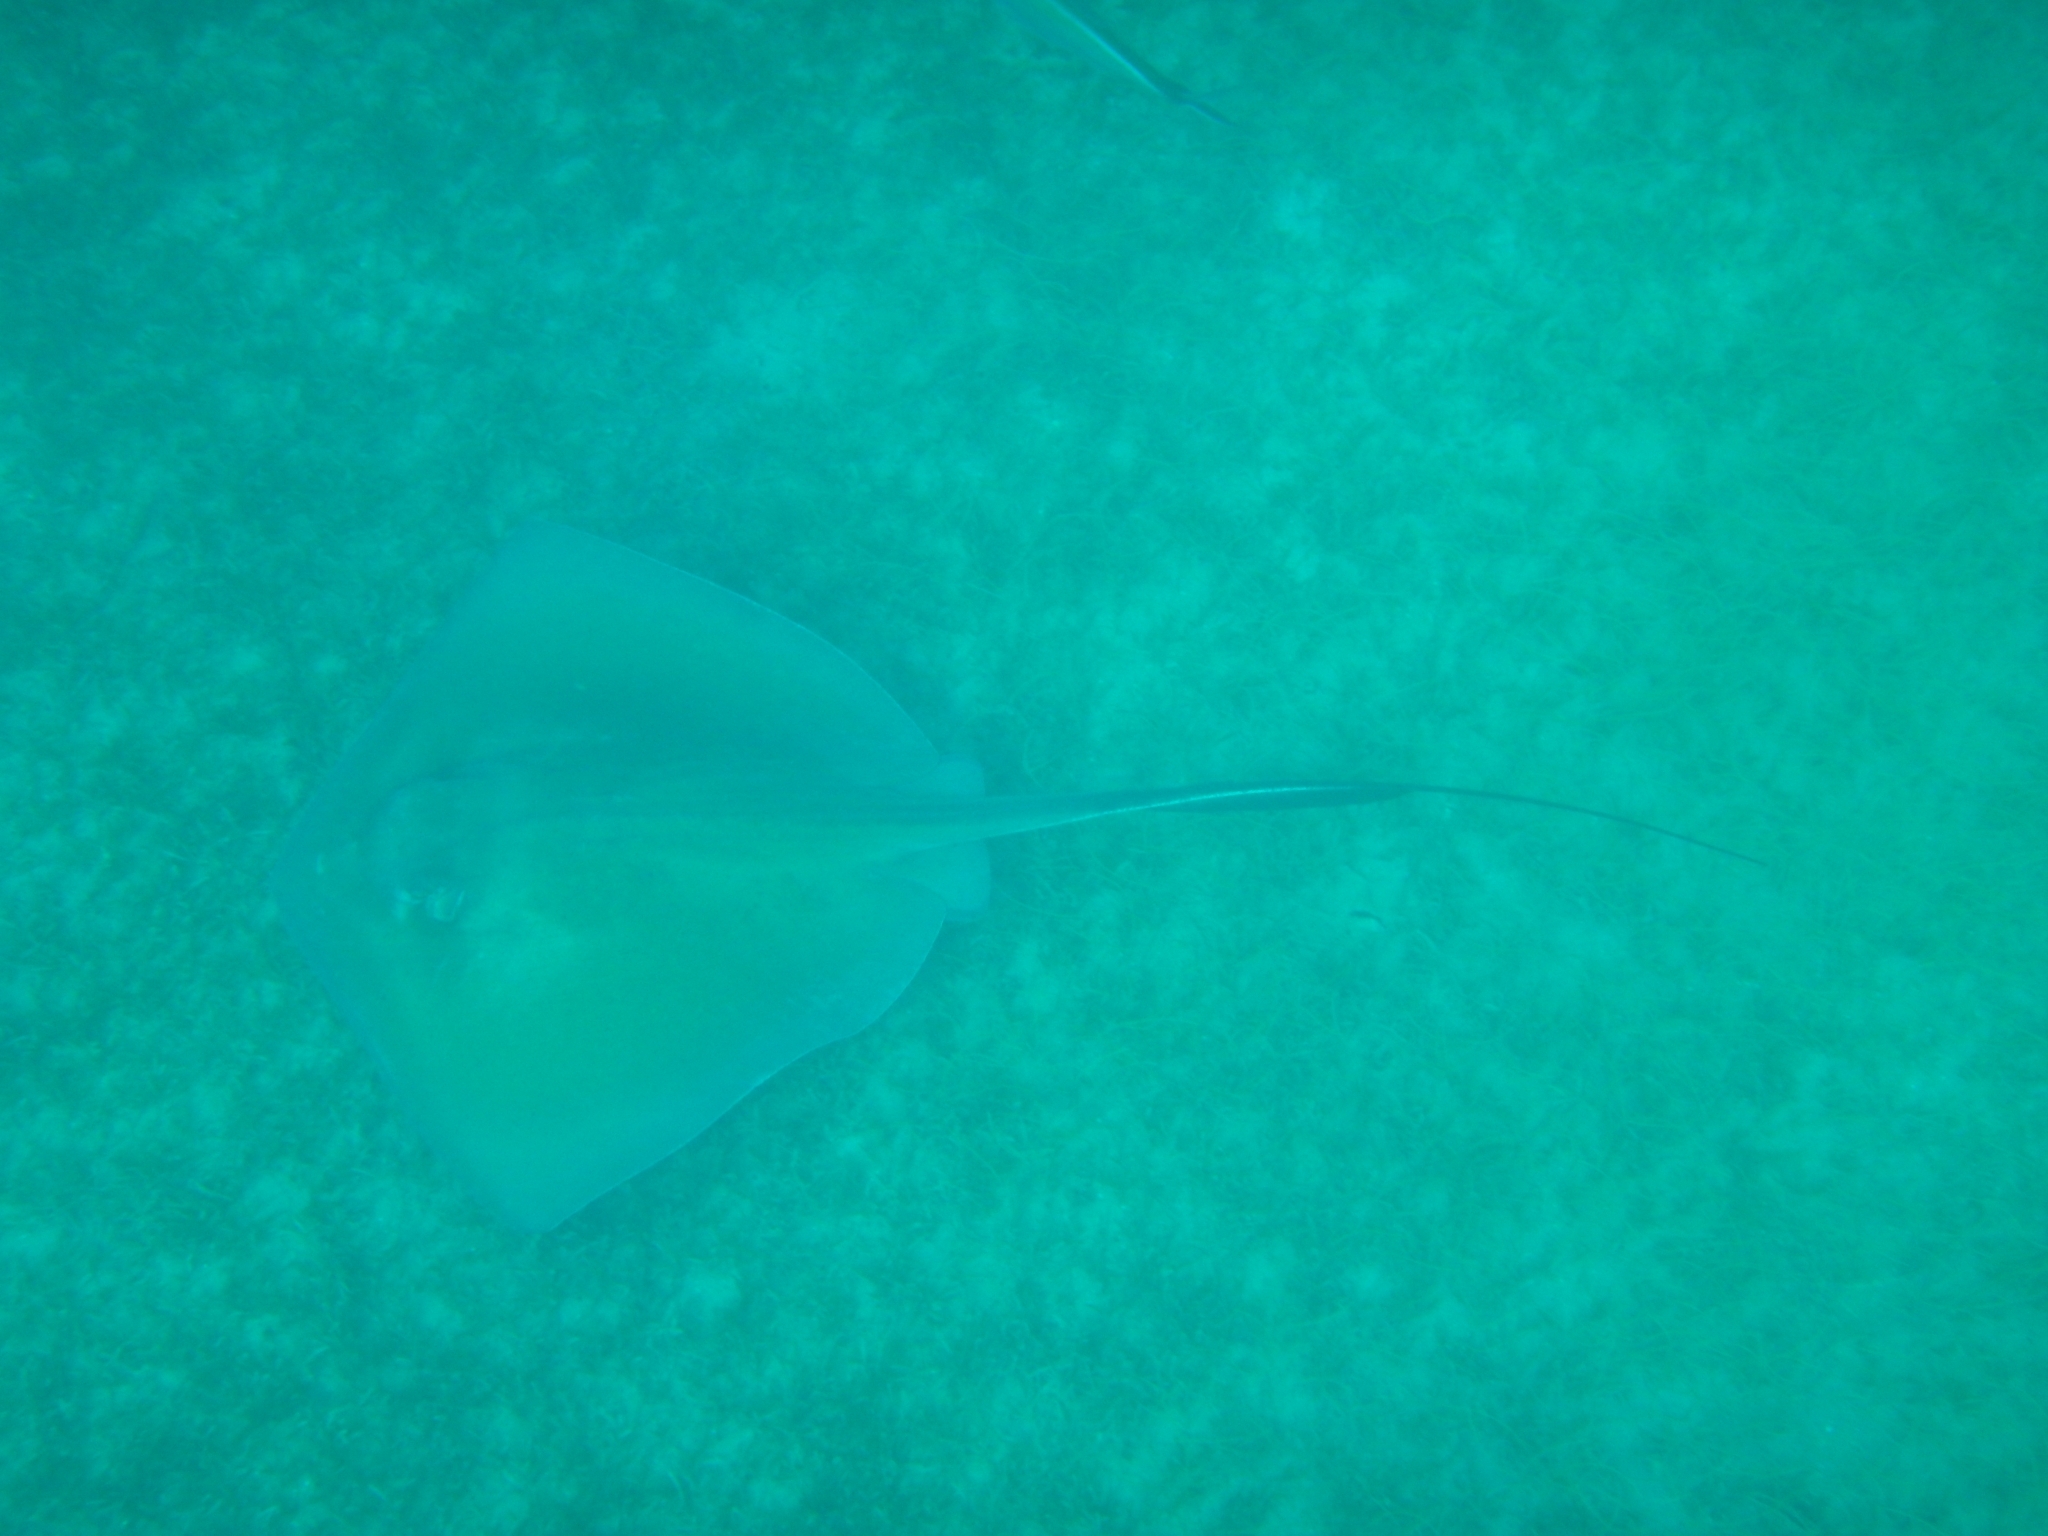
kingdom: Animalia
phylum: Chordata
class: Elasmobranchii
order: Myliobatiformes
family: Dasyatidae
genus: Hypanus
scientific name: Hypanus americanus
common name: Southern stingray
